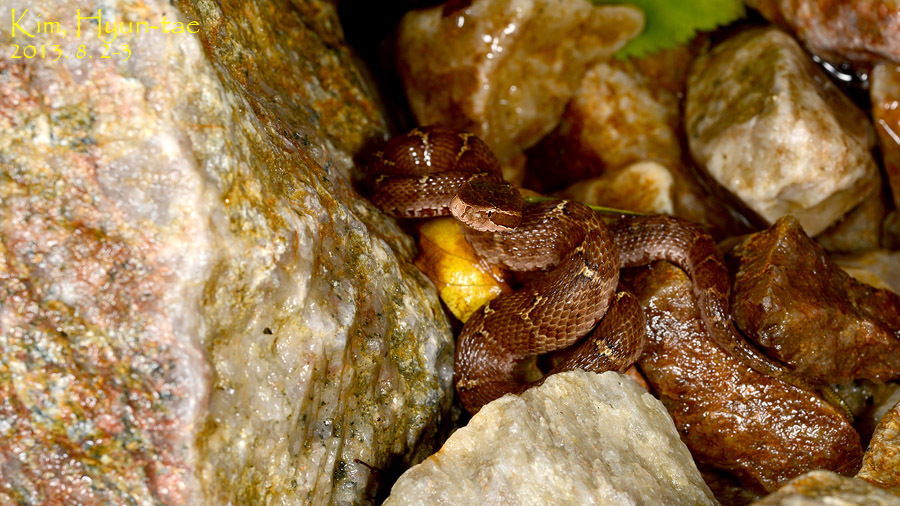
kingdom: Animalia
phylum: Chordata
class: Squamata
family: Viperidae
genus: Gloydius
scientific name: Gloydius ussuriensis
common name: Ussuri mamushi
